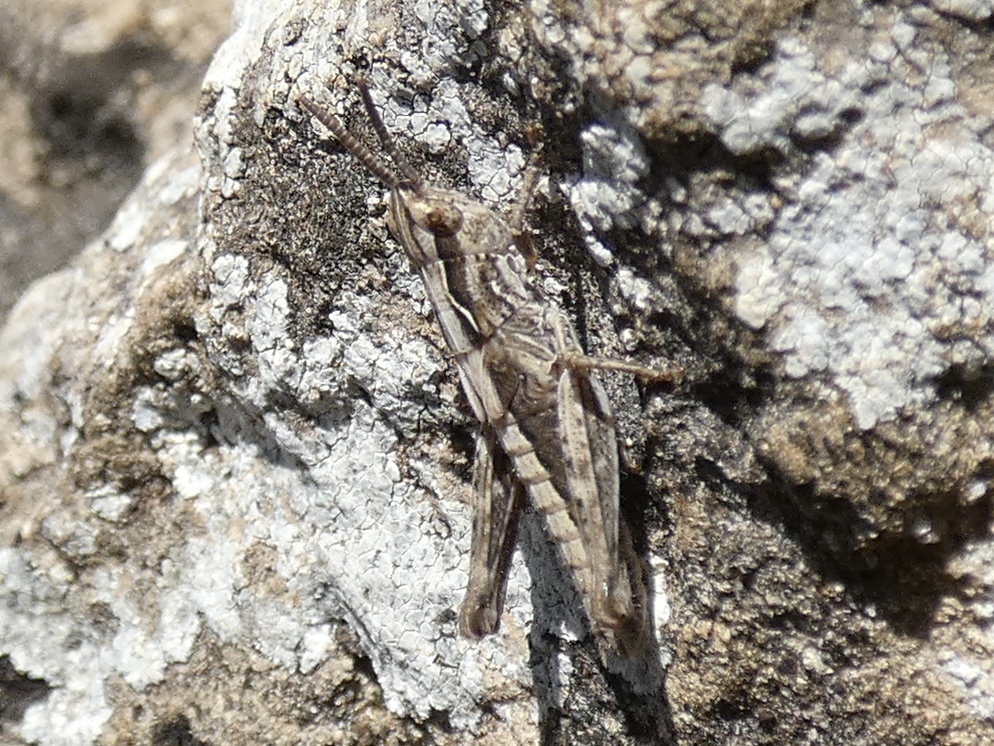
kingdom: Animalia
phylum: Arthropoda
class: Insecta
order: Orthoptera
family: Acrididae
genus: Chorthippus
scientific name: Chorthippus brunneus
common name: Field grasshopper
